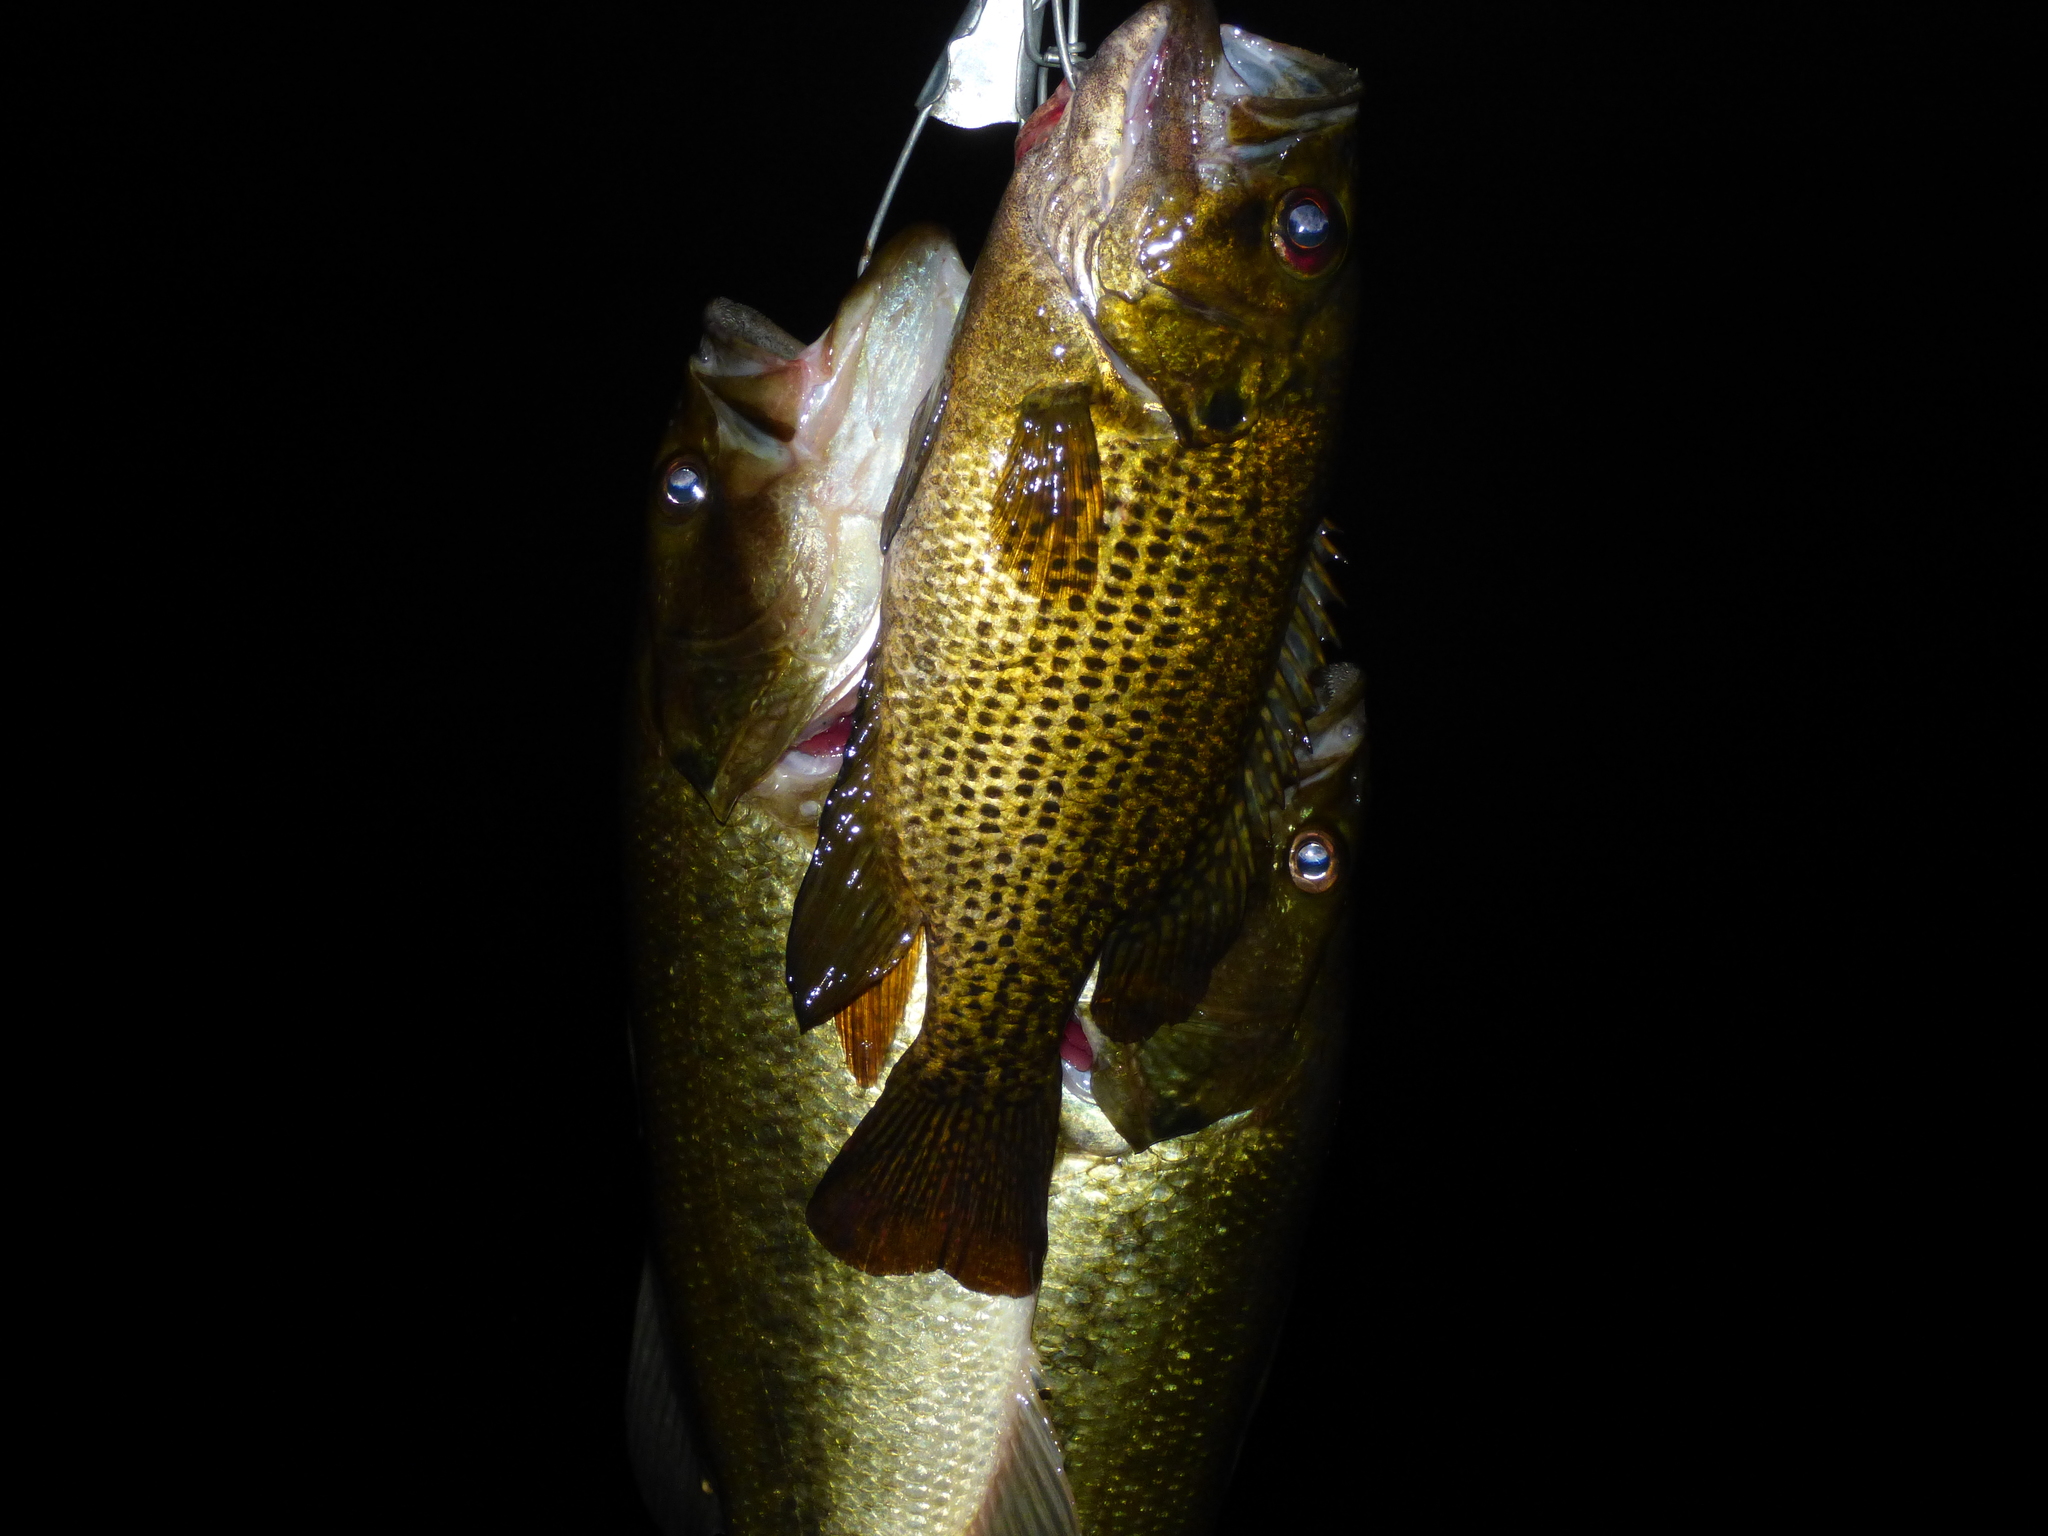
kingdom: Animalia
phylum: Chordata
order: Perciformes
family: Centrarchidae
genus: Ambloplites
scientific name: Ambloplites rupestris
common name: Rock bass
